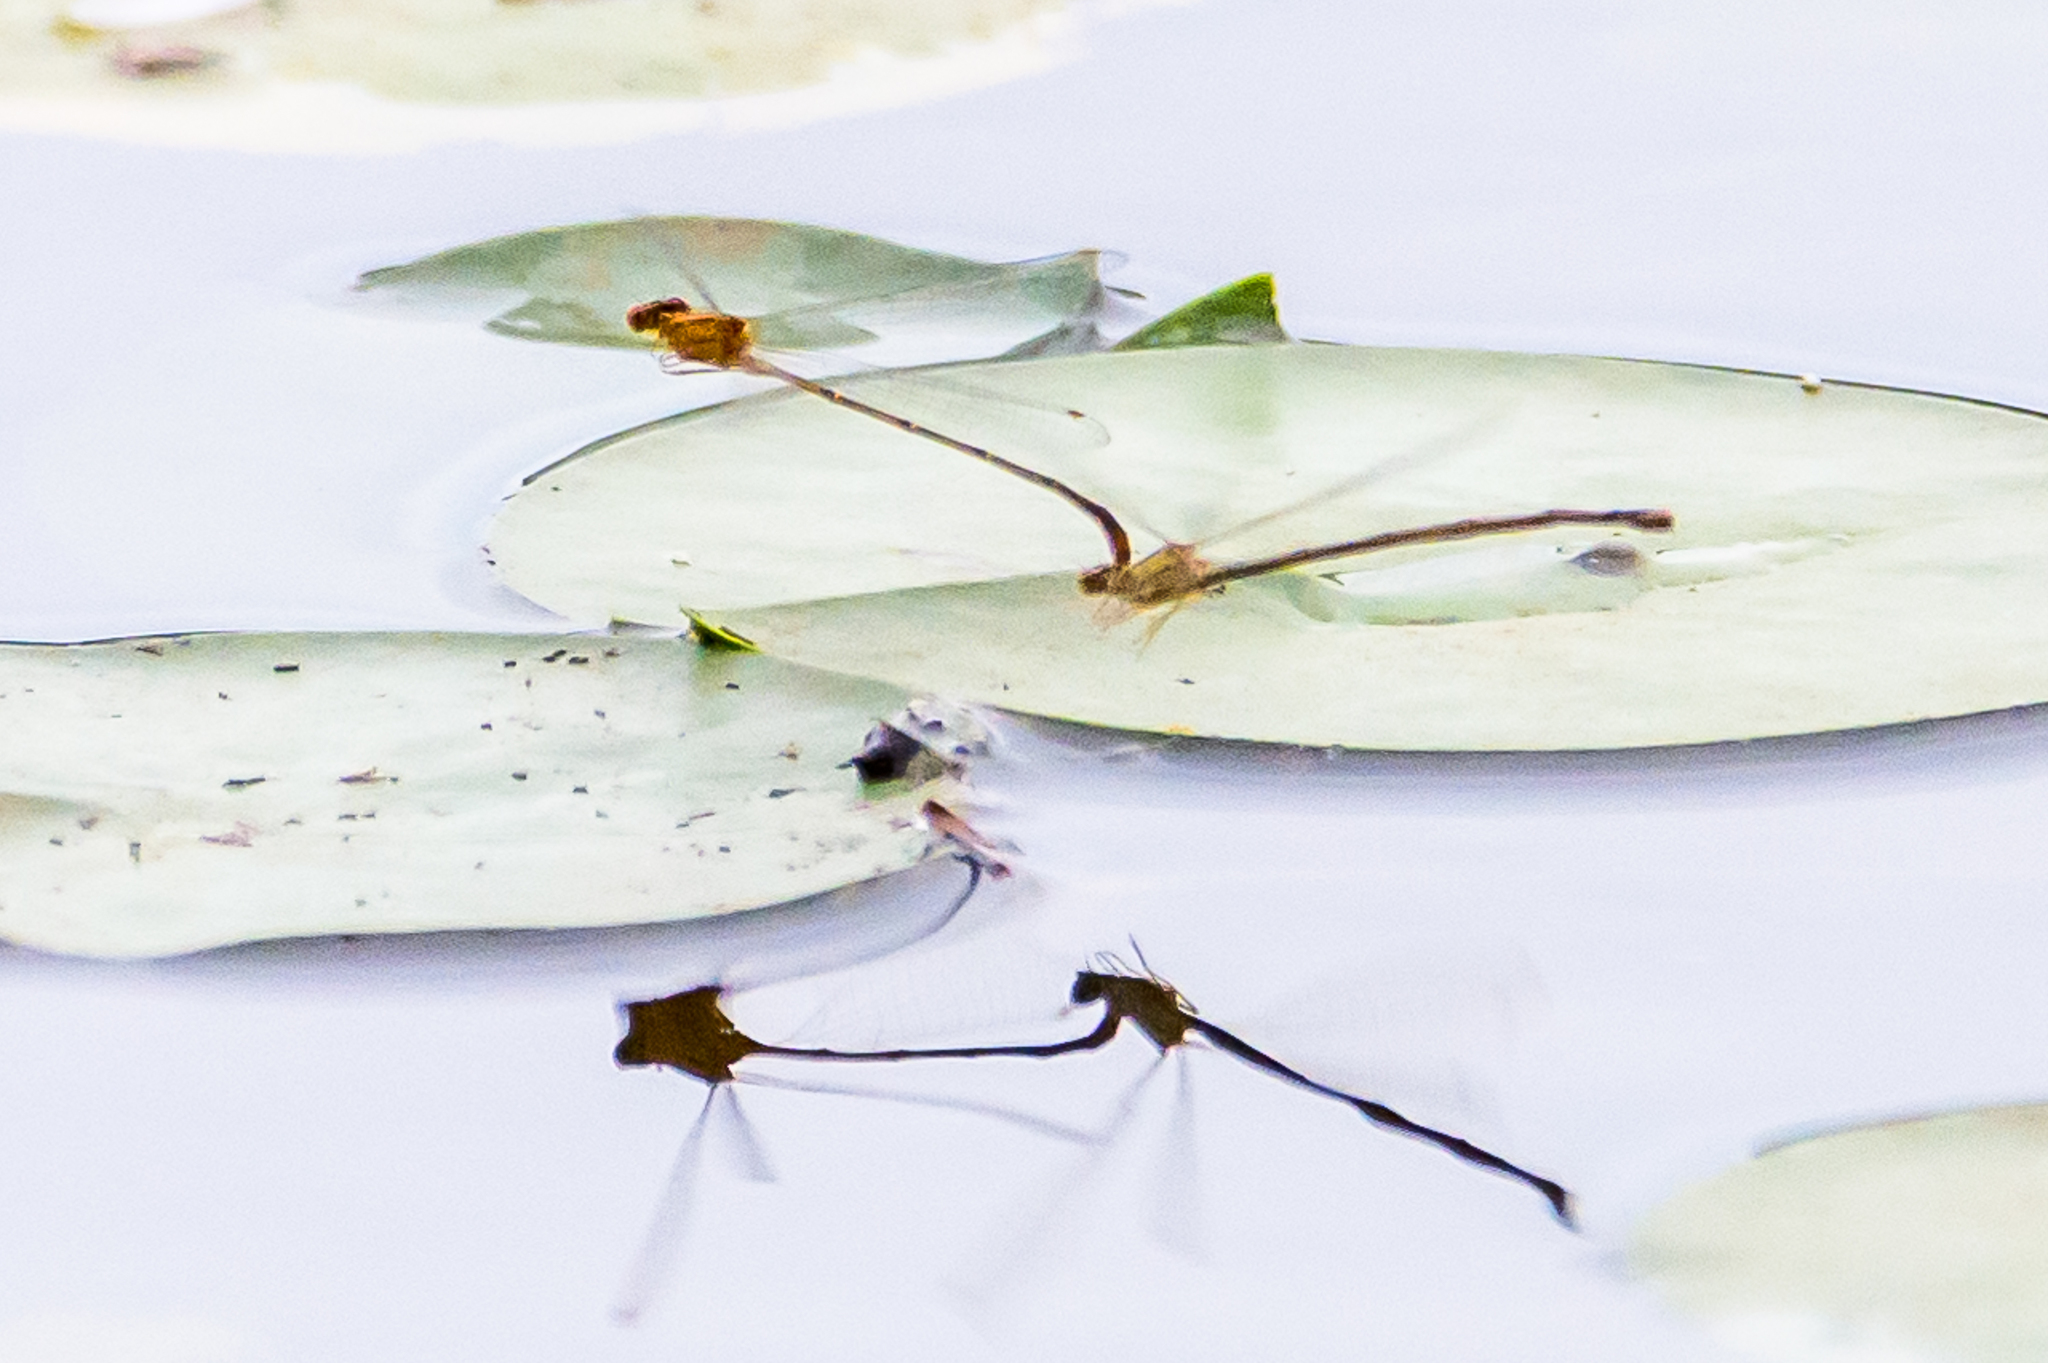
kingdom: Animalia
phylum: Arthropoda
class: Insecta
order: Odonata
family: Coenagrionidae
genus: Enallagma
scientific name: Enallagma signatum
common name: Orange bluet
